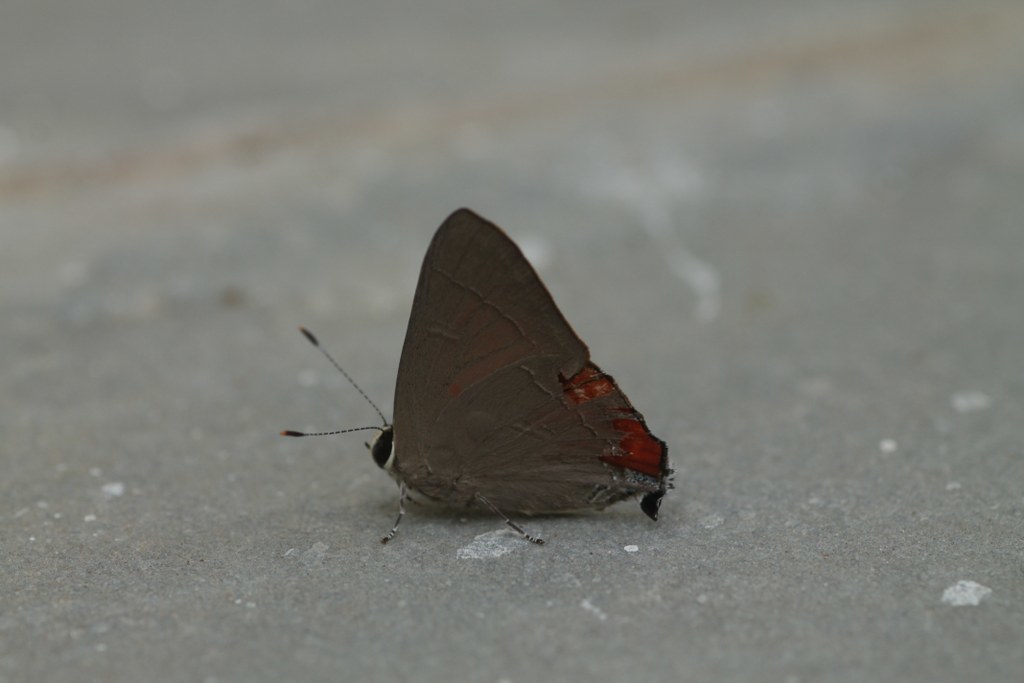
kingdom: Animalia
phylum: Arthropoda
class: Insecta
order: Lepidoptera
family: Lycaenidae
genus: Rapala
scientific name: Rapala iarbus
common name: Common red flash
